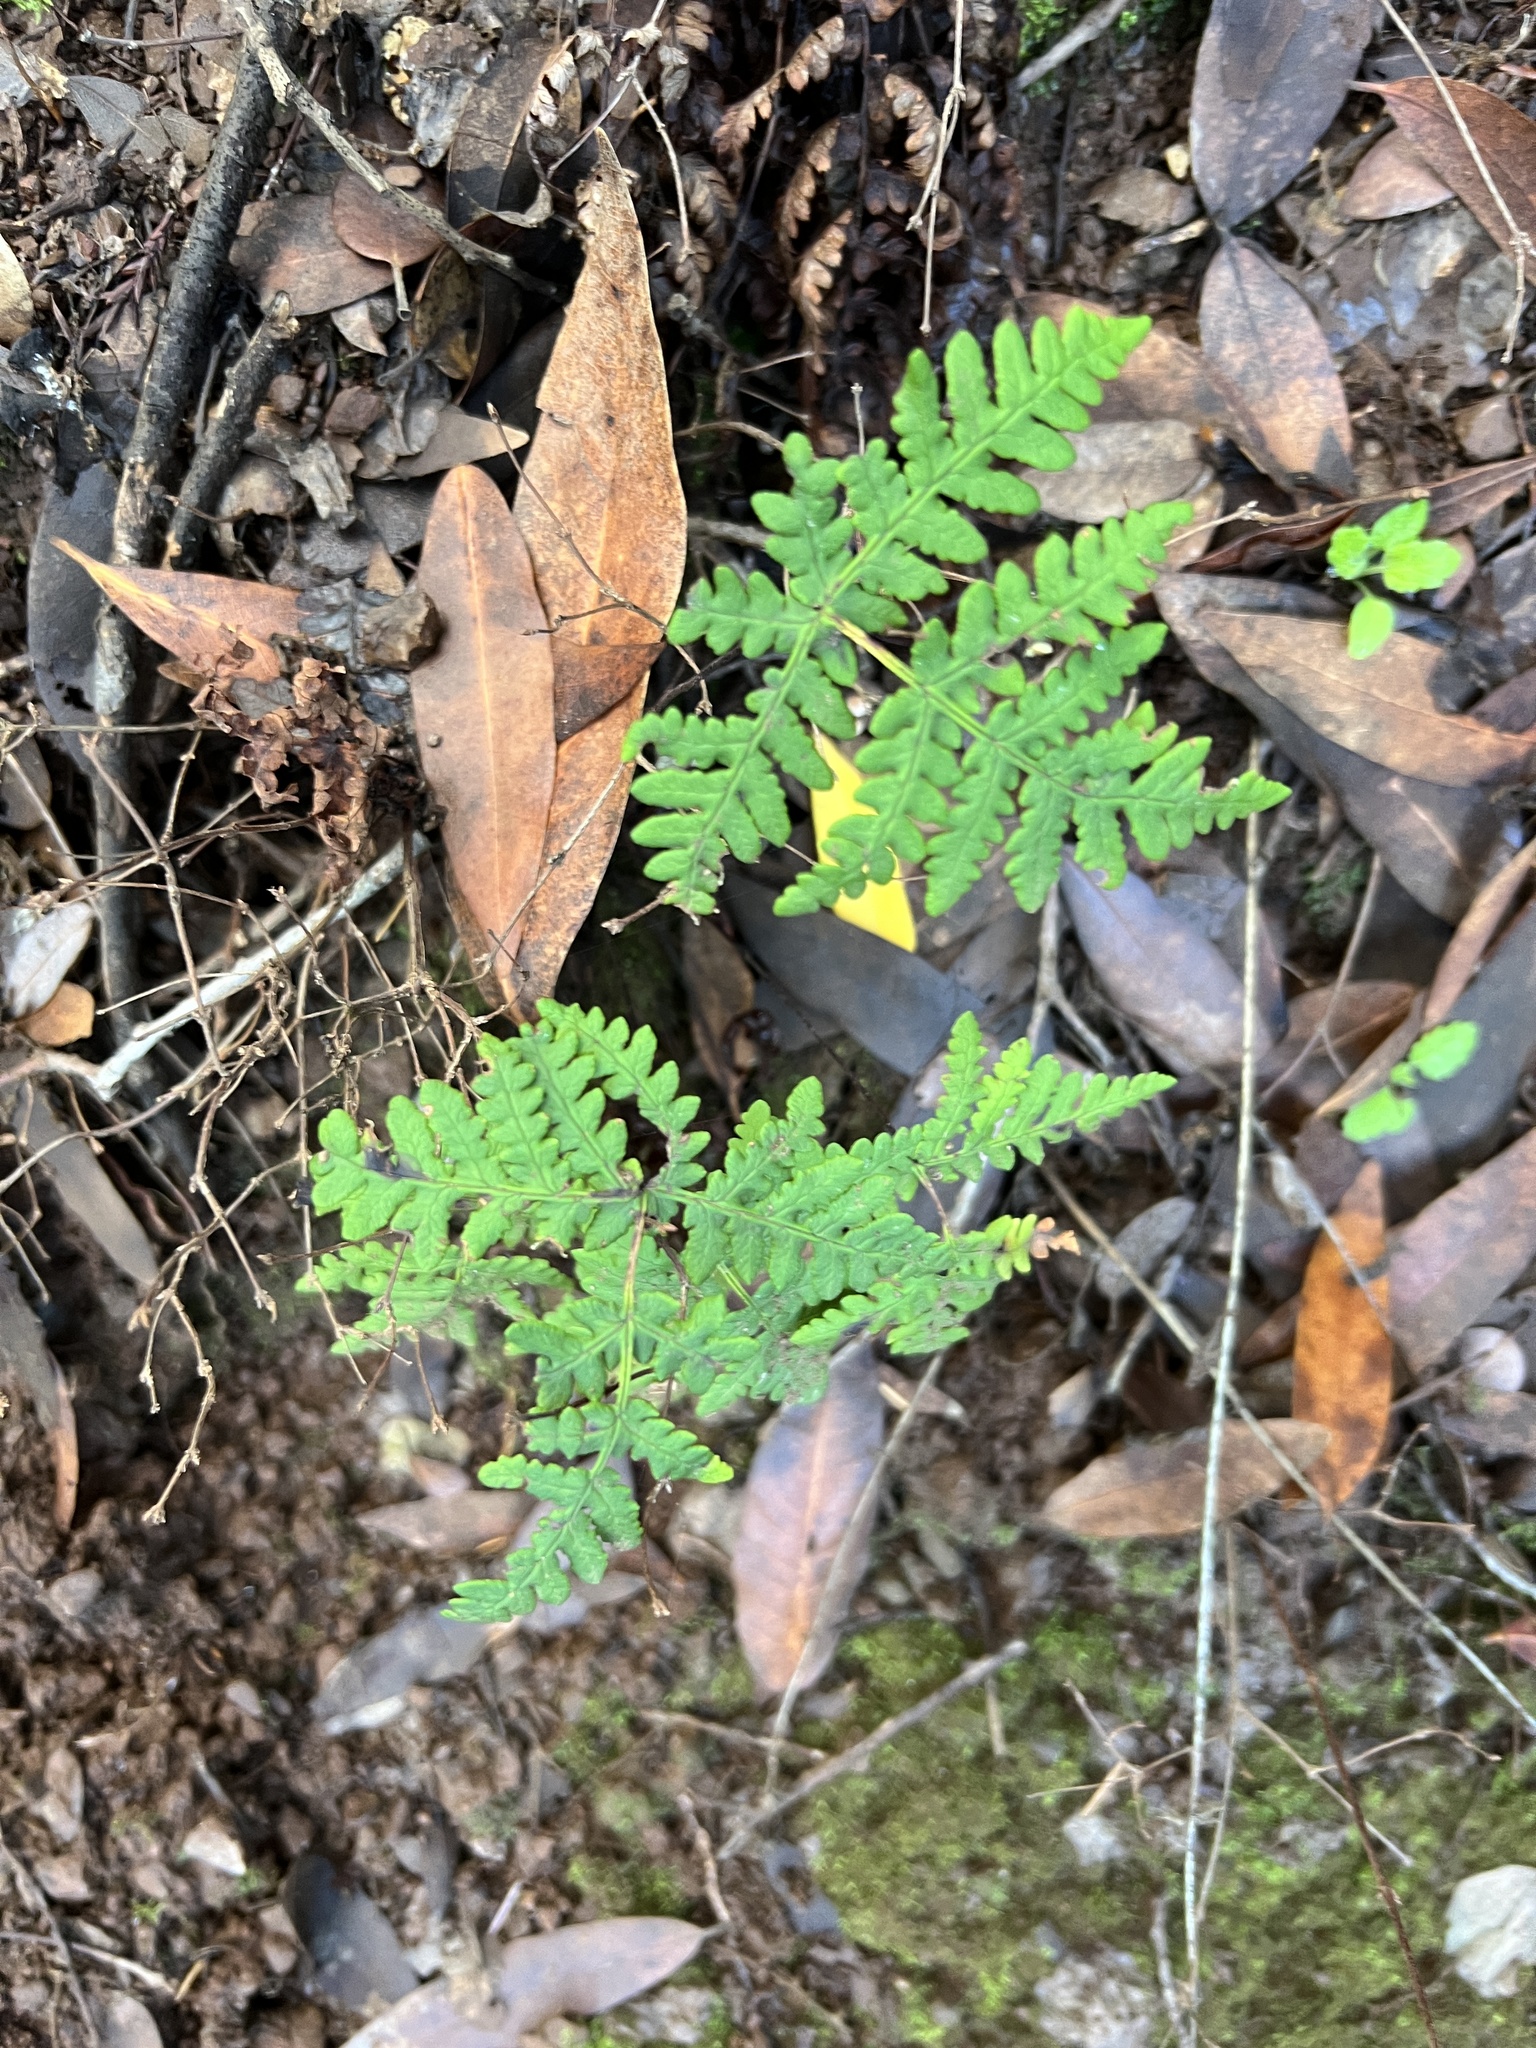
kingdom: Plantae
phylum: Tracheophyta
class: Polypodiopsida
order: Polypodiales
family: Pteridaceae
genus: Pentagramma
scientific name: Pentagramma triangularis
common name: Gold fern
